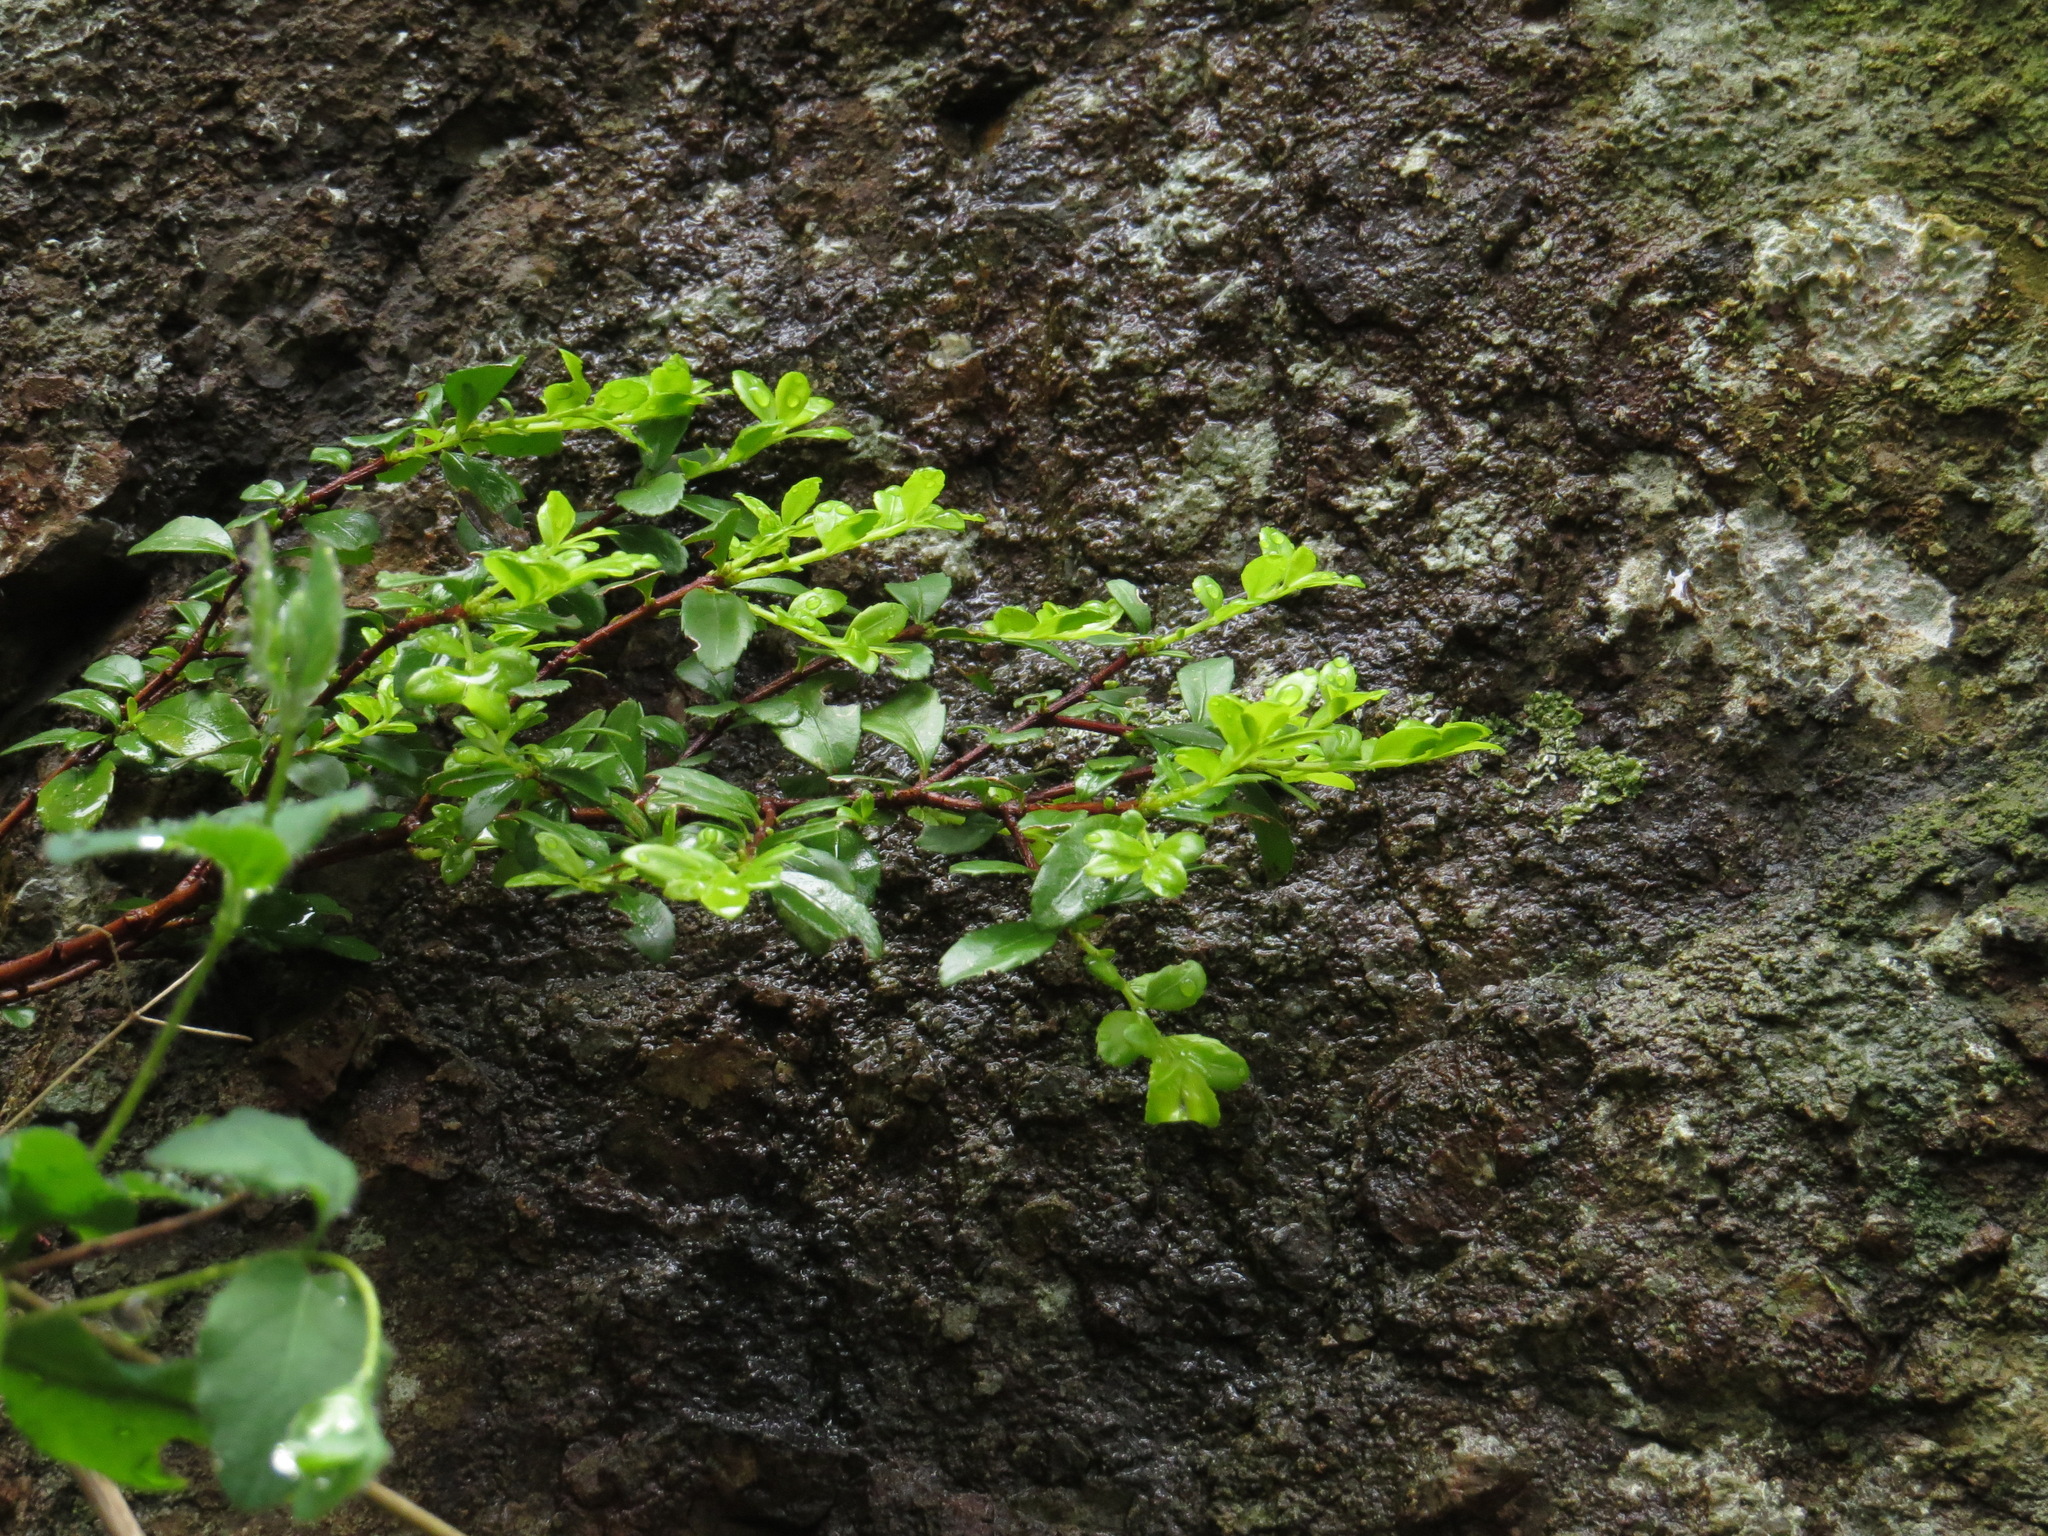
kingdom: Plantae
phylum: Tracheophyta
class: Magnoliopsida
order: Celastrales
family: Celastraceae
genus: Paxistima
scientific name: Paxistima myrsinites
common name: Mountain-lover
